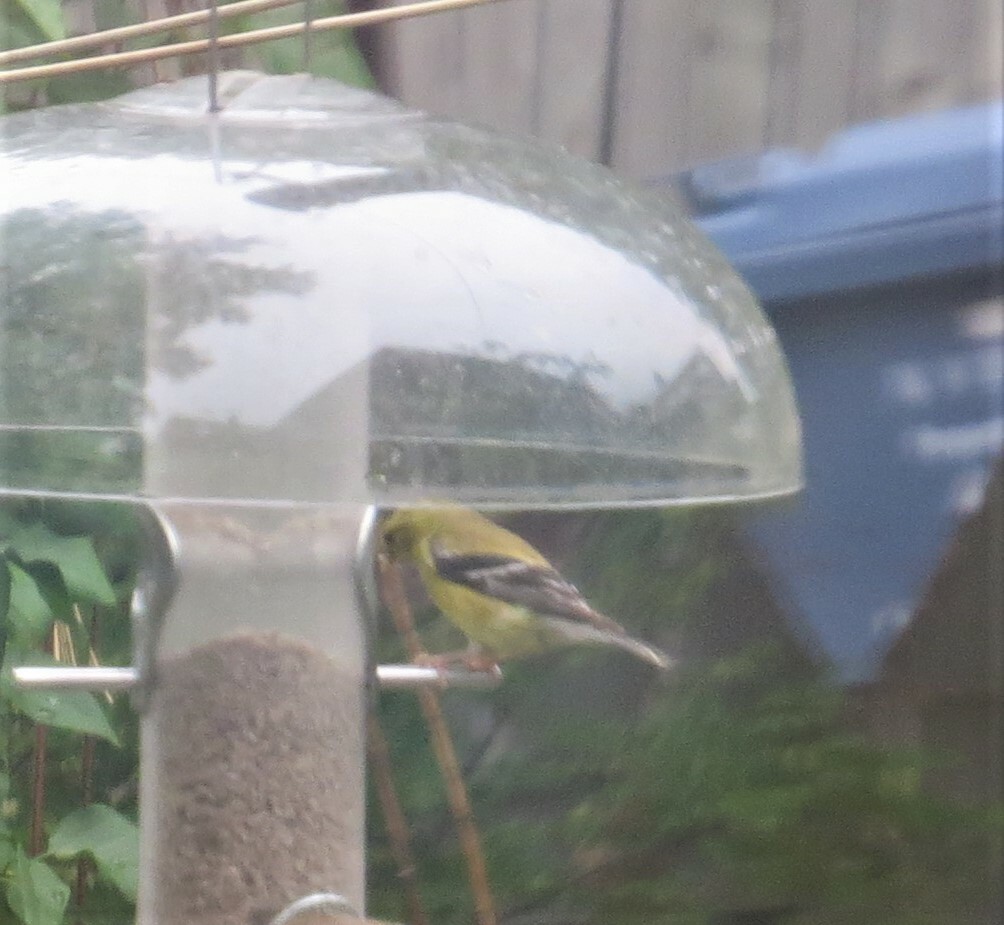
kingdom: Animalia
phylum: Chordata
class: Aves
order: Passeriformes
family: Fringillidae
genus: Spinus
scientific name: Spinus tristis
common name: American goldfinch
